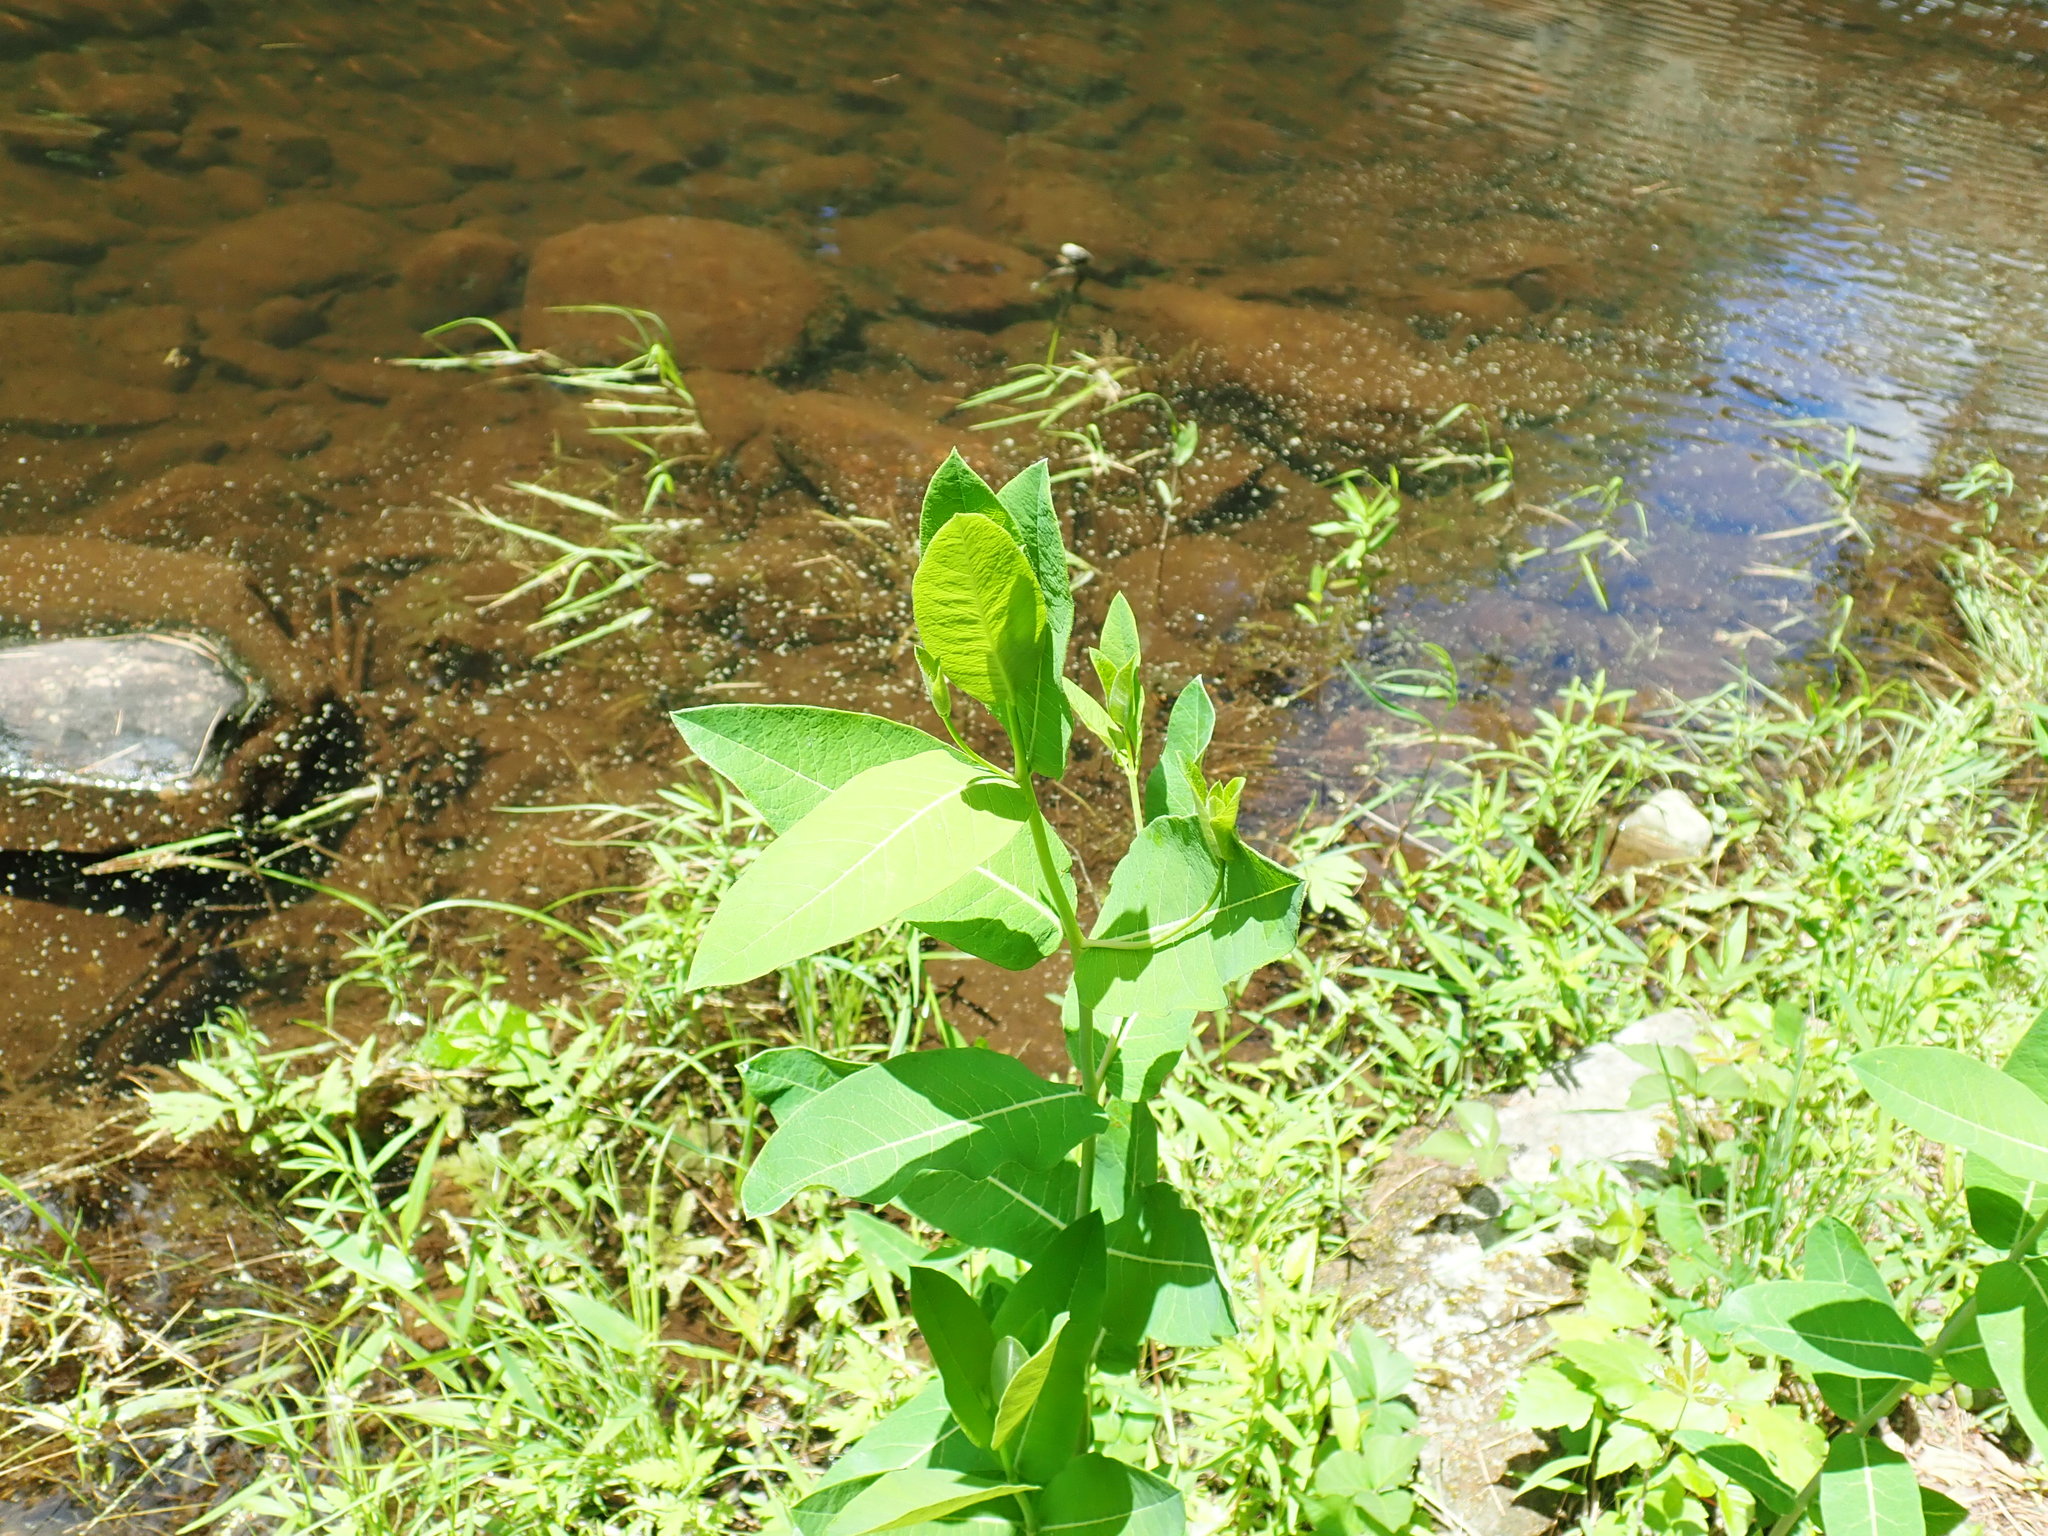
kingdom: Plantae
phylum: Tracheophyta
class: Magnoliopsida
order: Gentianales
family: Apocynaceae
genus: Apocynum
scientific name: Apocynum cannabinum
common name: Hemp dogbane
